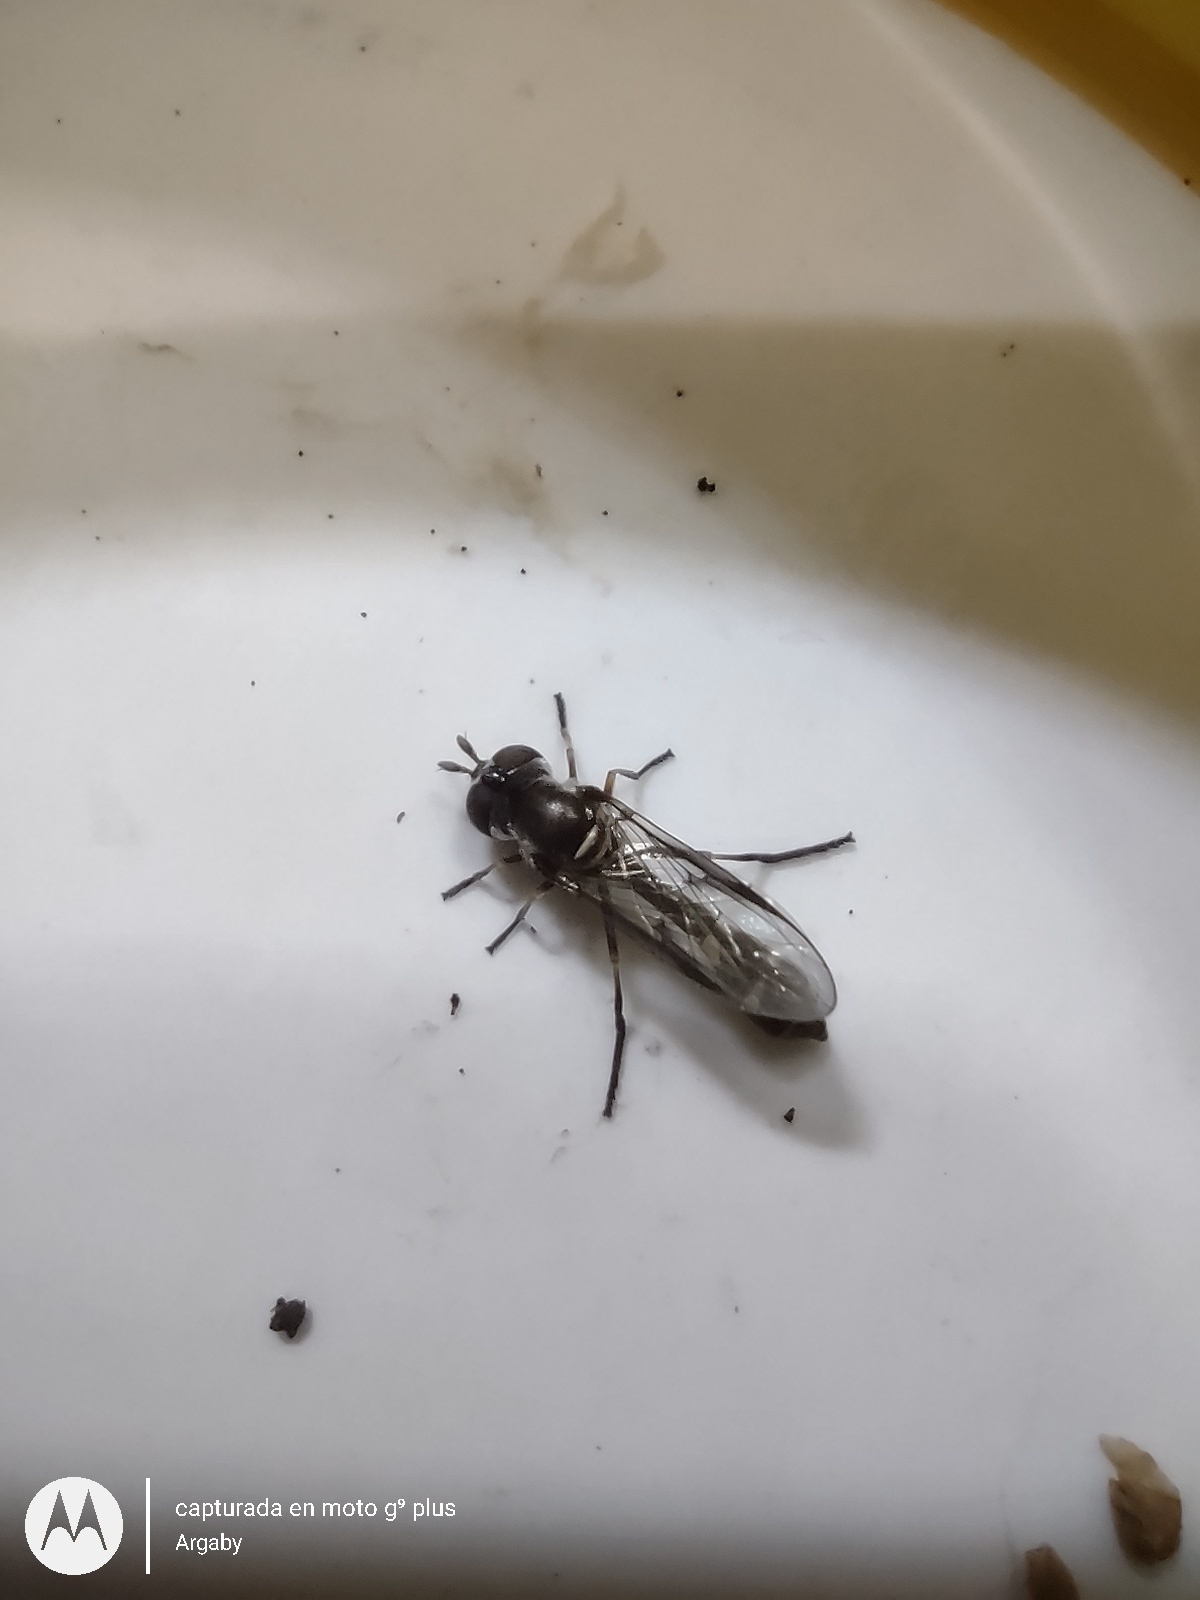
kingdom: Animalia
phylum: Arthropoda
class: Insecta
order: Diptera
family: Syrphidae
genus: Dioprosopa
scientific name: Dioprosopa clavatus
